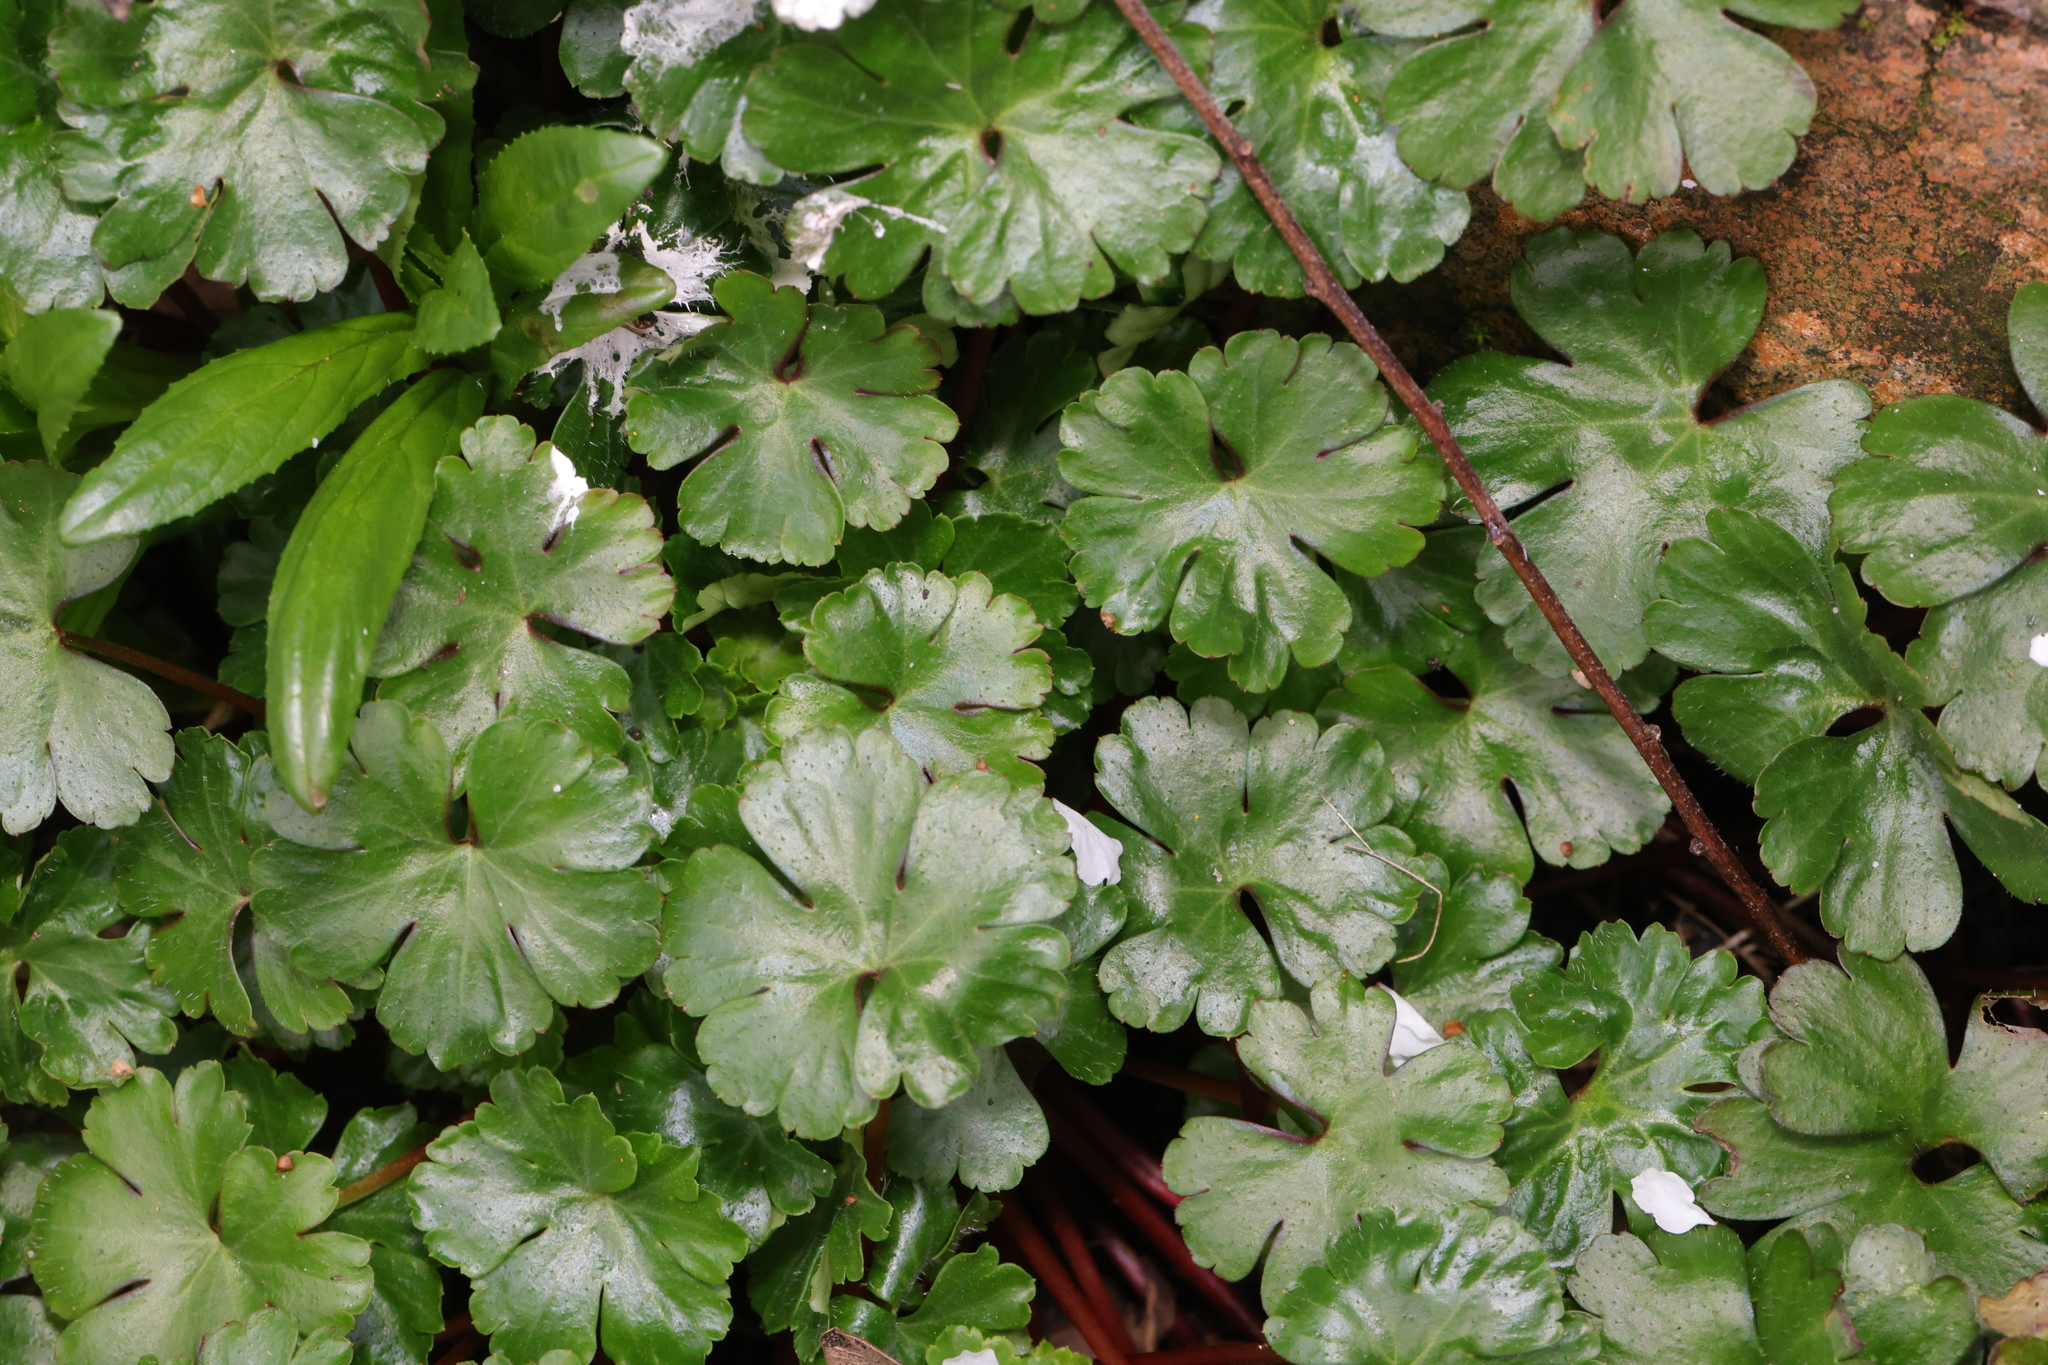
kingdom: Plantae
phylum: Tracheophyta
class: Magnoliopsida
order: Geraniales
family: Geraniaceae
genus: Geranium
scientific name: Geranium lucidum
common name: Shining crane's-bill
